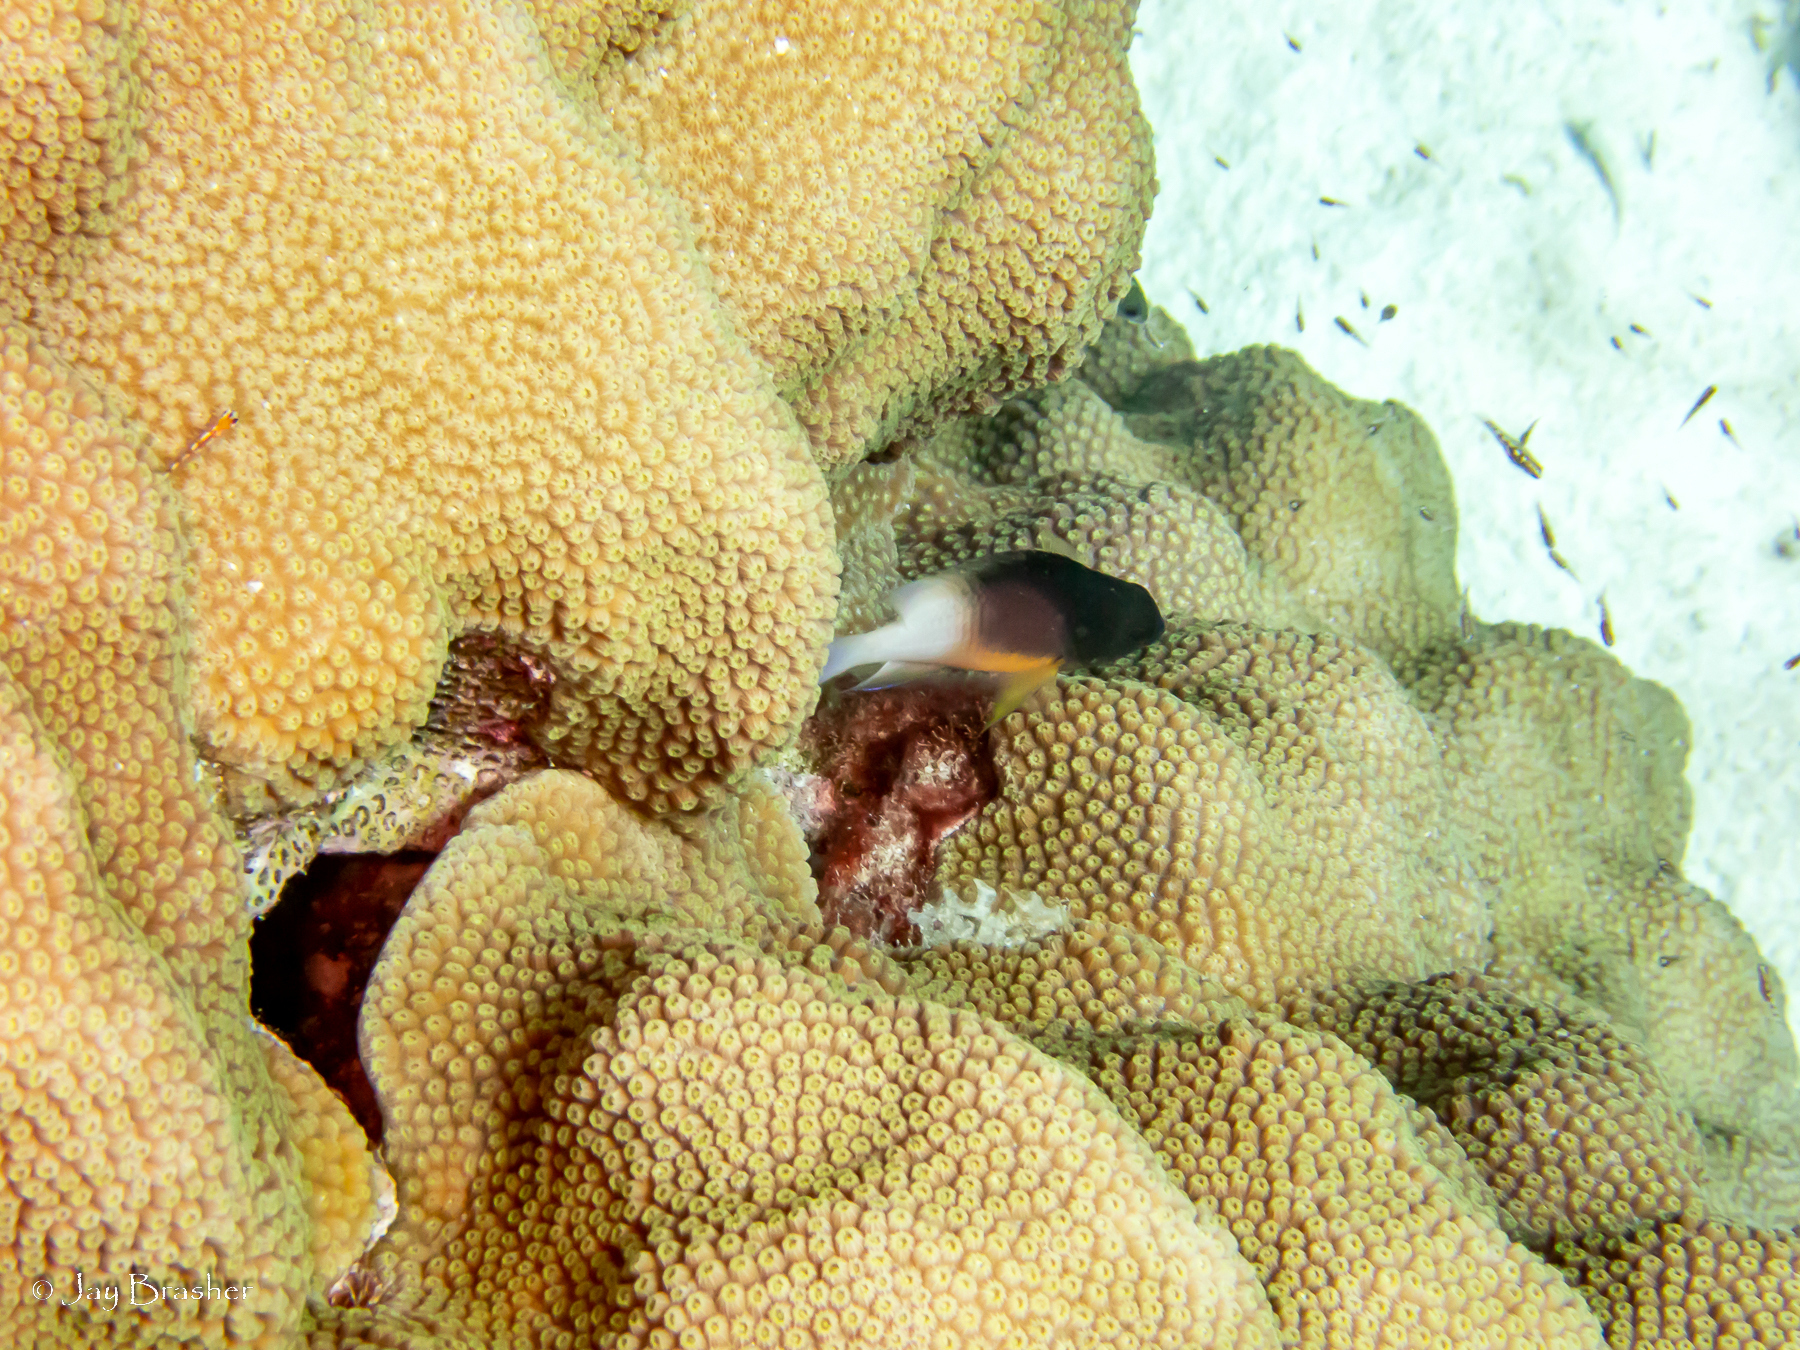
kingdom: Animalia
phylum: Chordata
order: Perciformes
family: Pomacentridae
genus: Stegastes
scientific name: Stegastes partitus
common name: Bicolor damselfish
